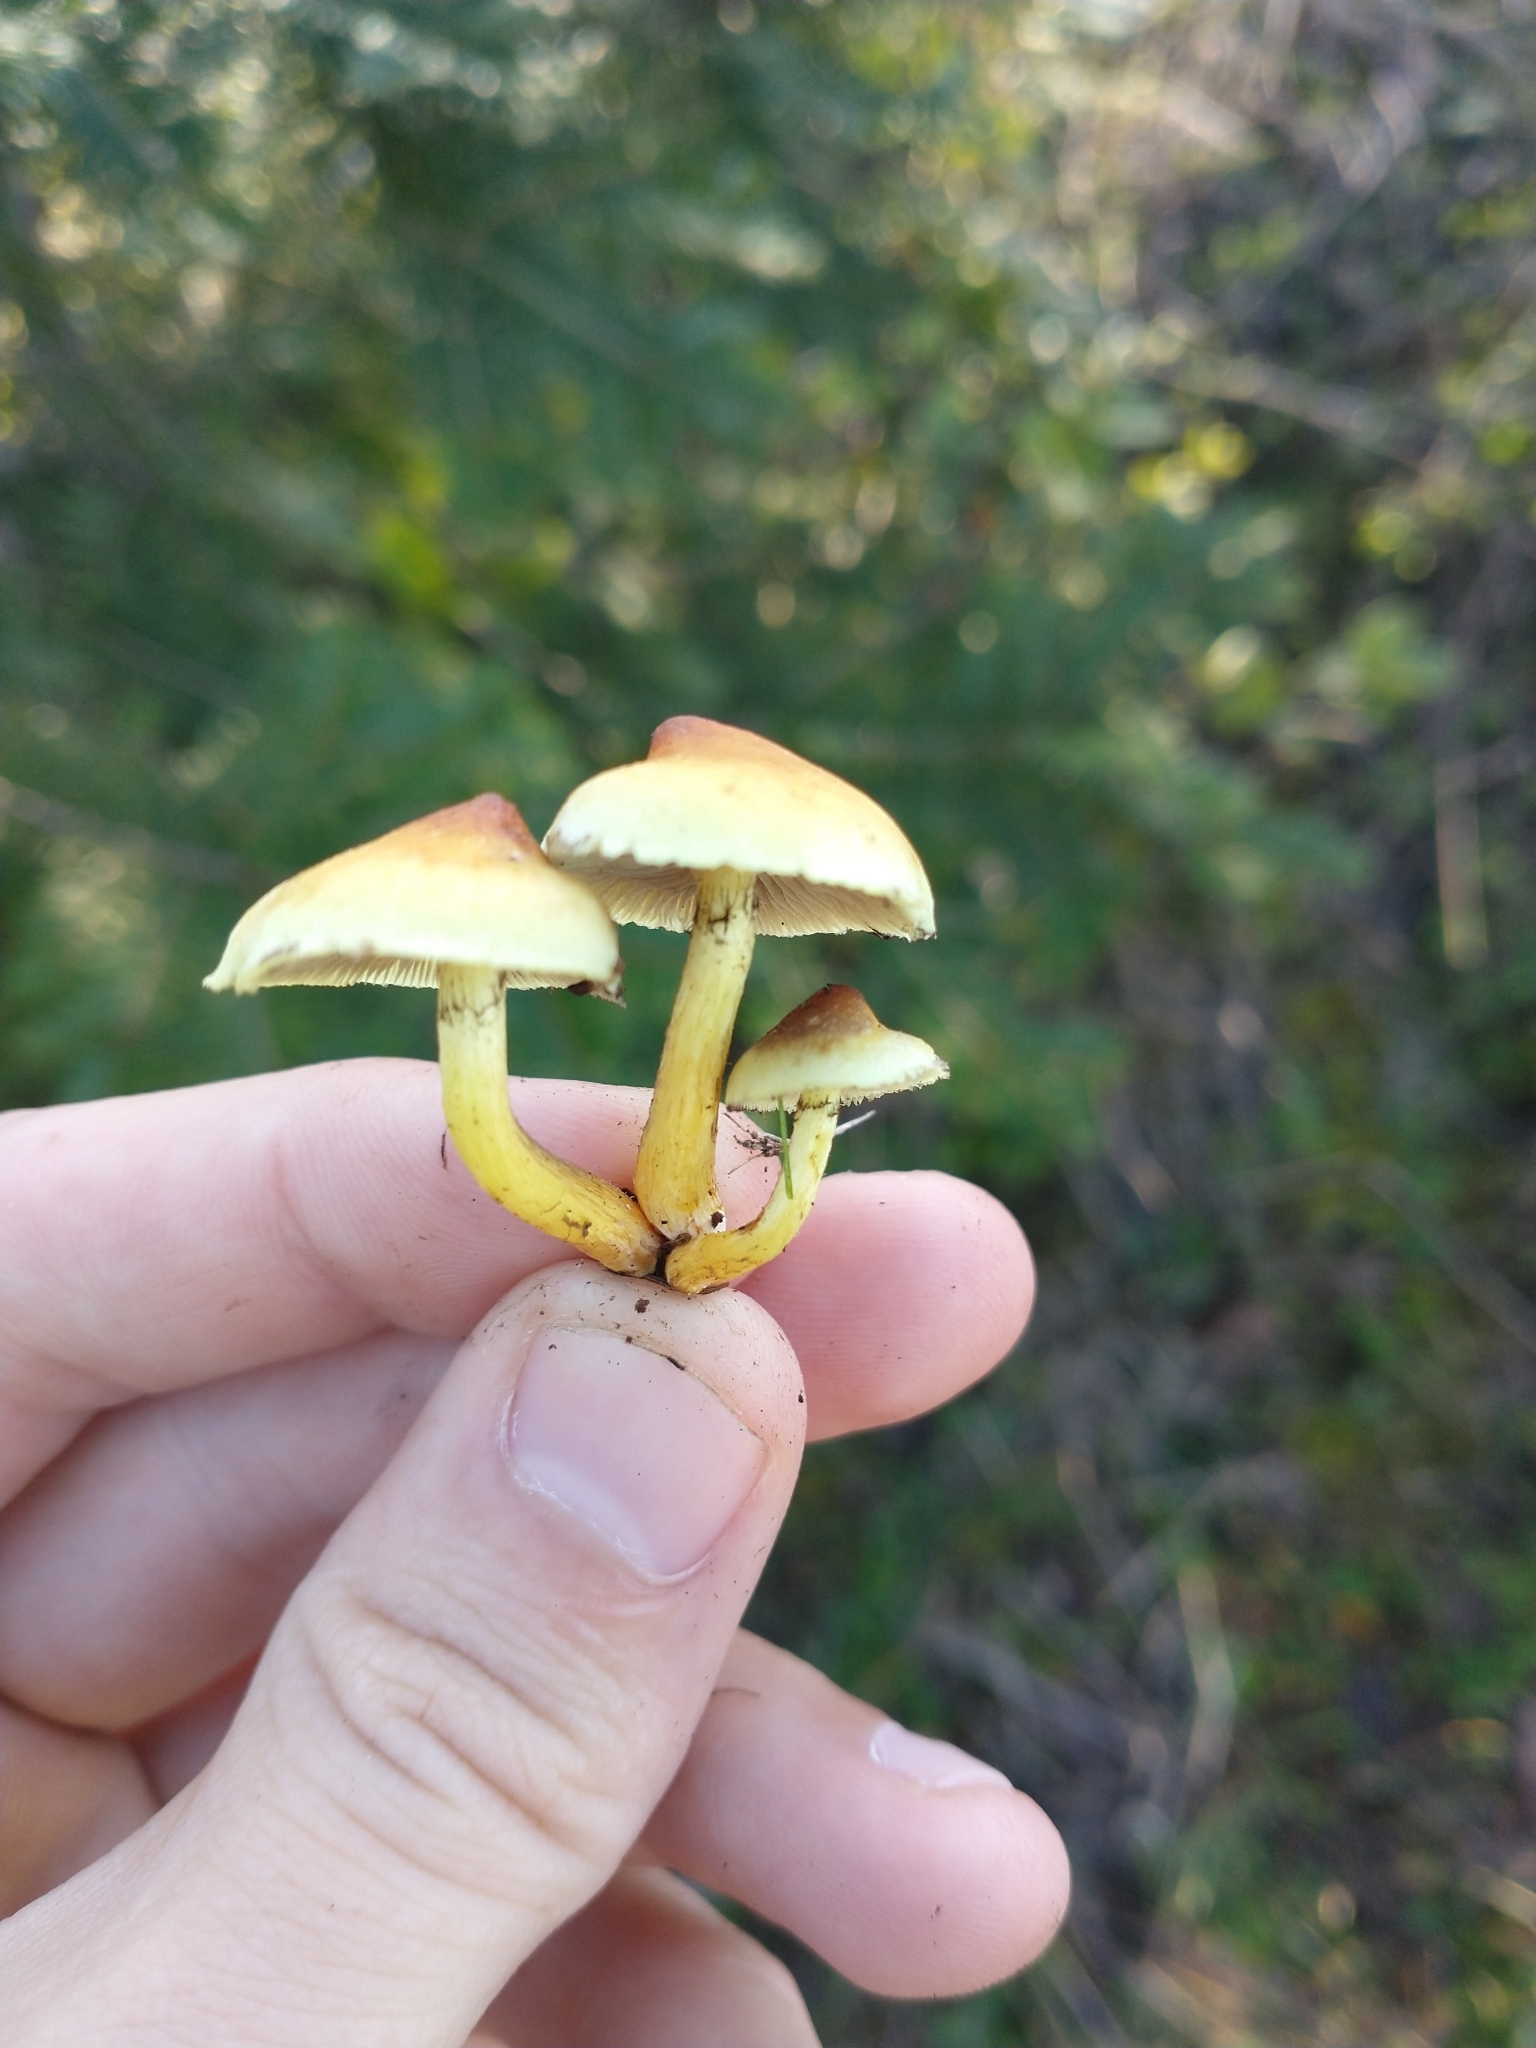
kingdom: Fungi
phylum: Basidiomycota
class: Agaricomycetes
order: Agaricales
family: Strophariaceae
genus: Hypholoma
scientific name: Hypholoma fasciculare
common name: Sulphur tuft
